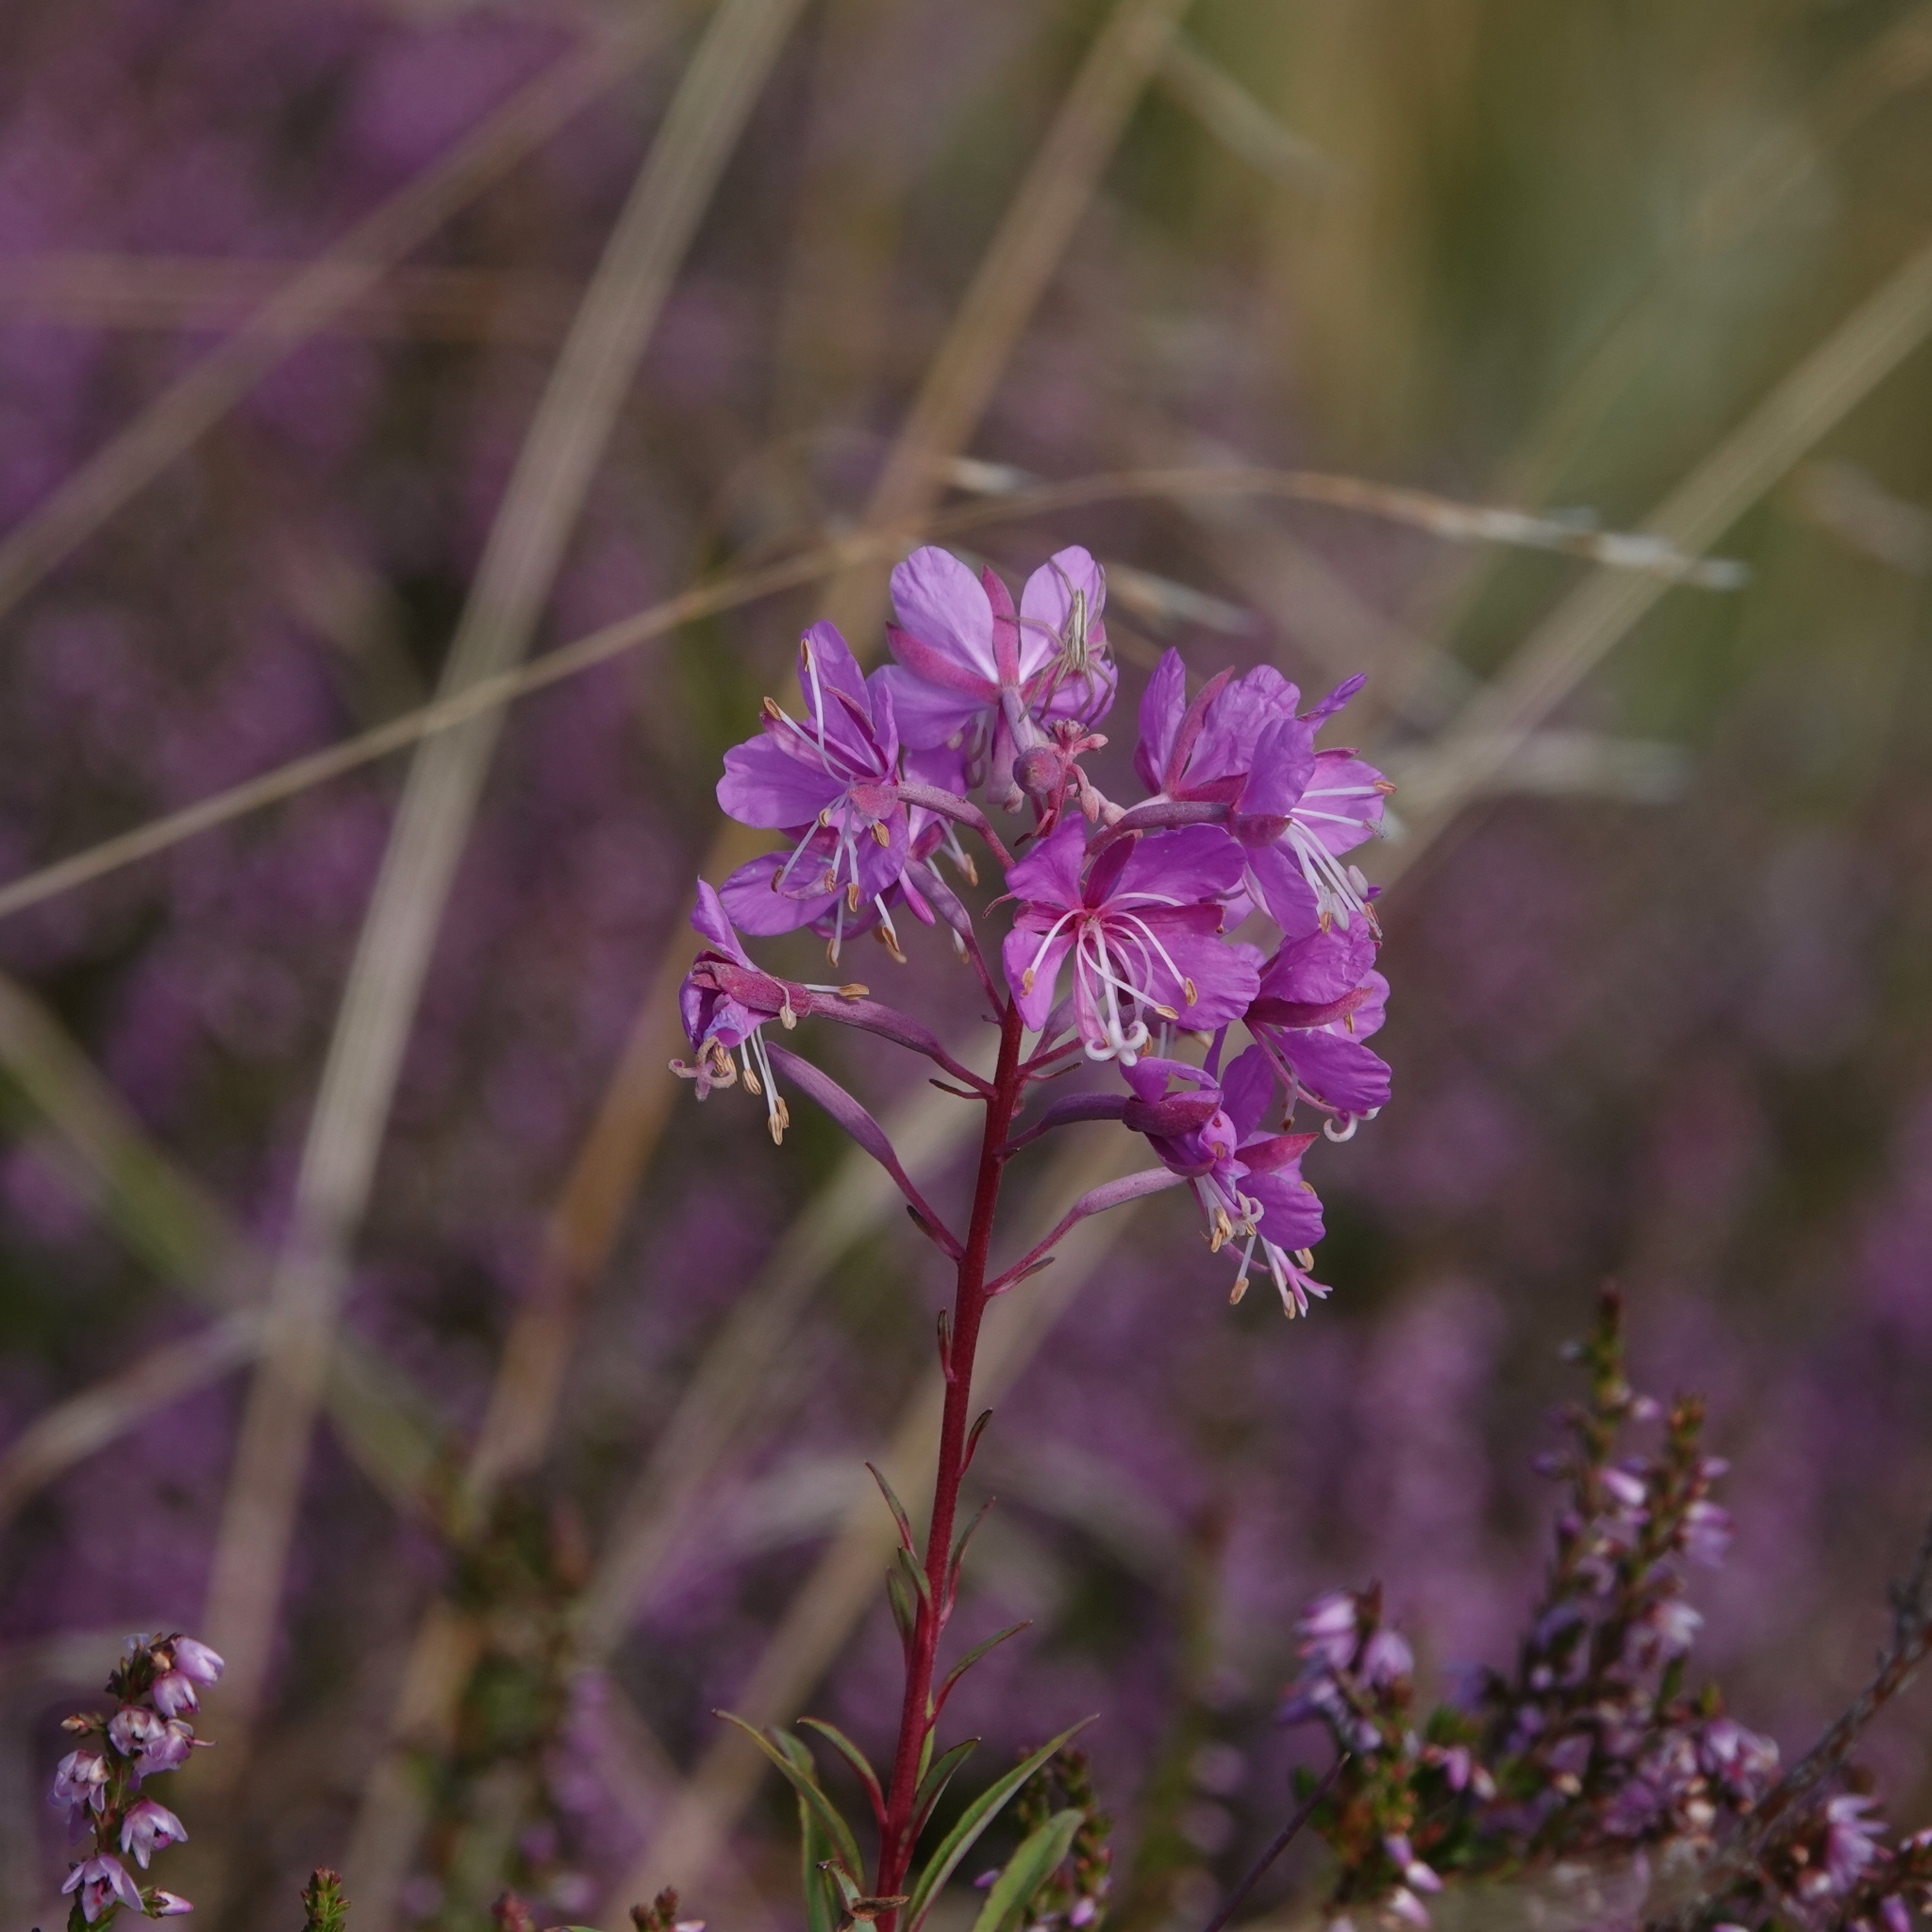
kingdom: Plantae
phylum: Tracheophyta
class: Magnoliopsida
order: Myrtales
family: Onagraceae
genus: Chamaenerion
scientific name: Chamaenerion angustifolium
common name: Fireweed
